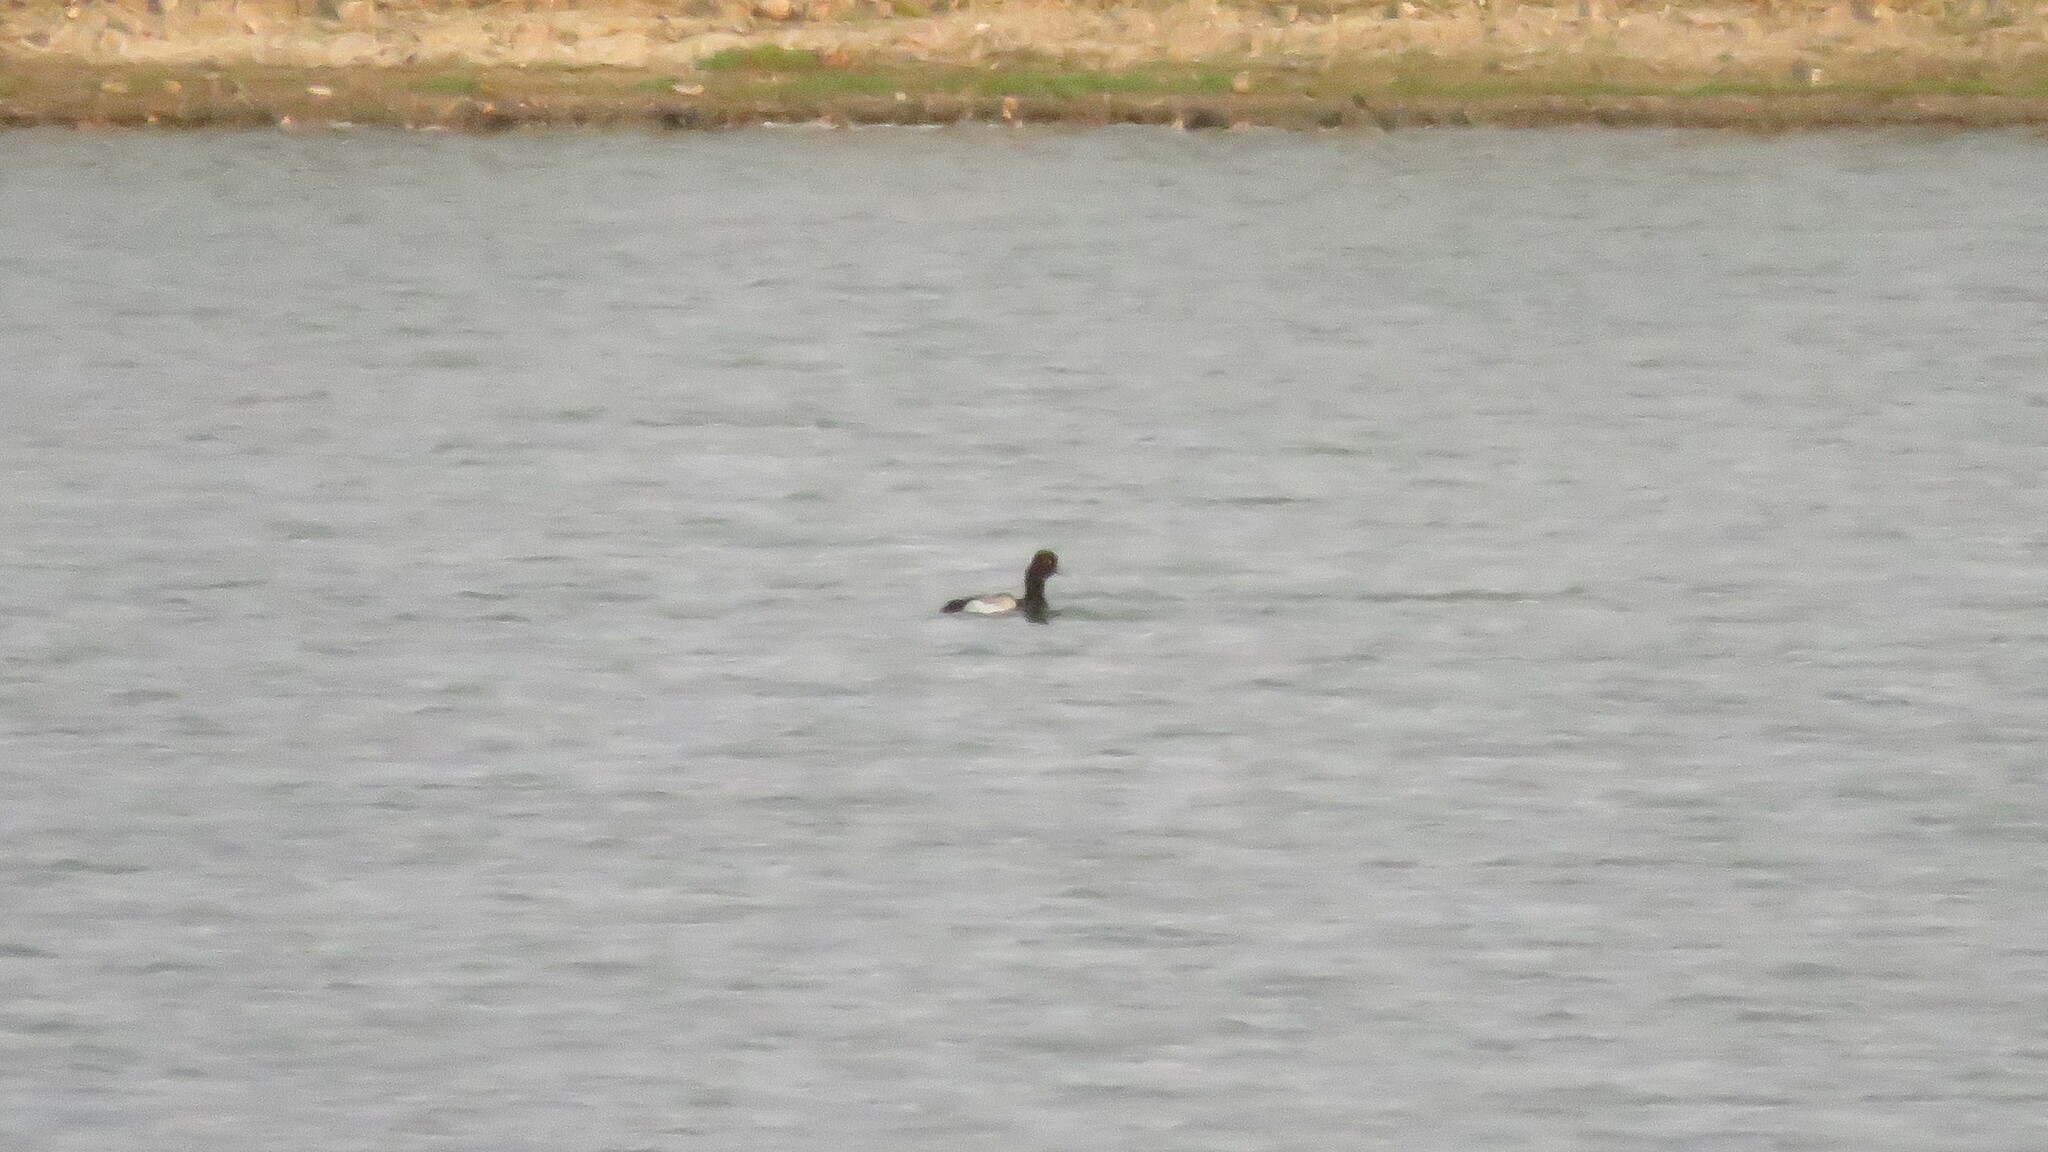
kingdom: Animalia
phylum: Chordata
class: Aves
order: Anseriformes
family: Anatidae
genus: Aythya
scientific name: Aythya affinis
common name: Lesser scaup
